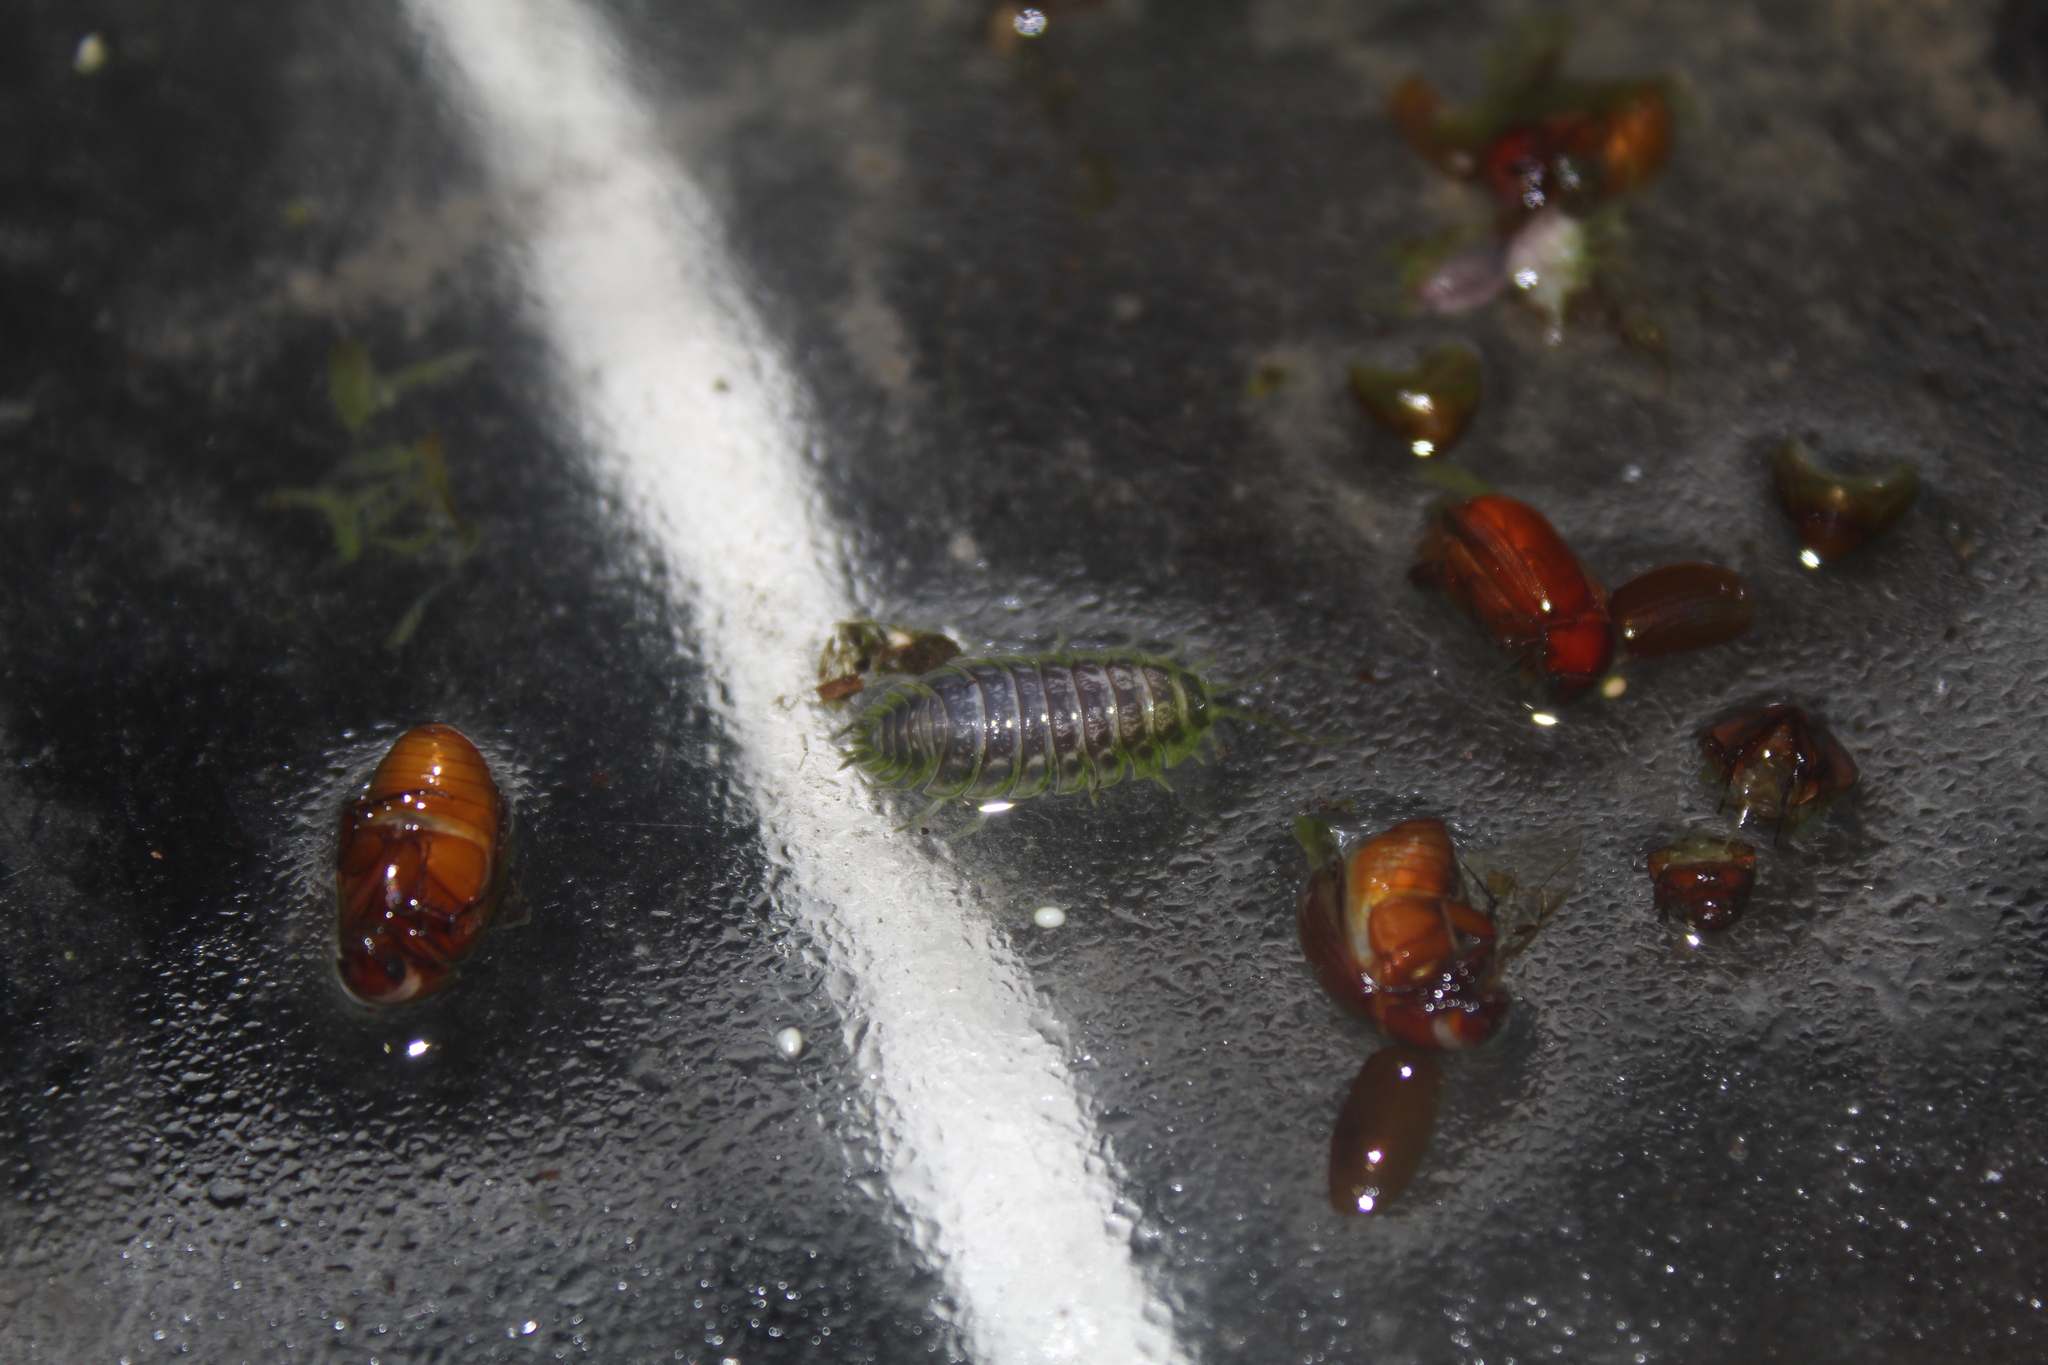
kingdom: Animalia
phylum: Arthropoda
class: Insecta
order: Coleoptera
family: Scarabaeidae
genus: Maladera
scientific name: Maladera formosae
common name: Asiatic garden beetle
